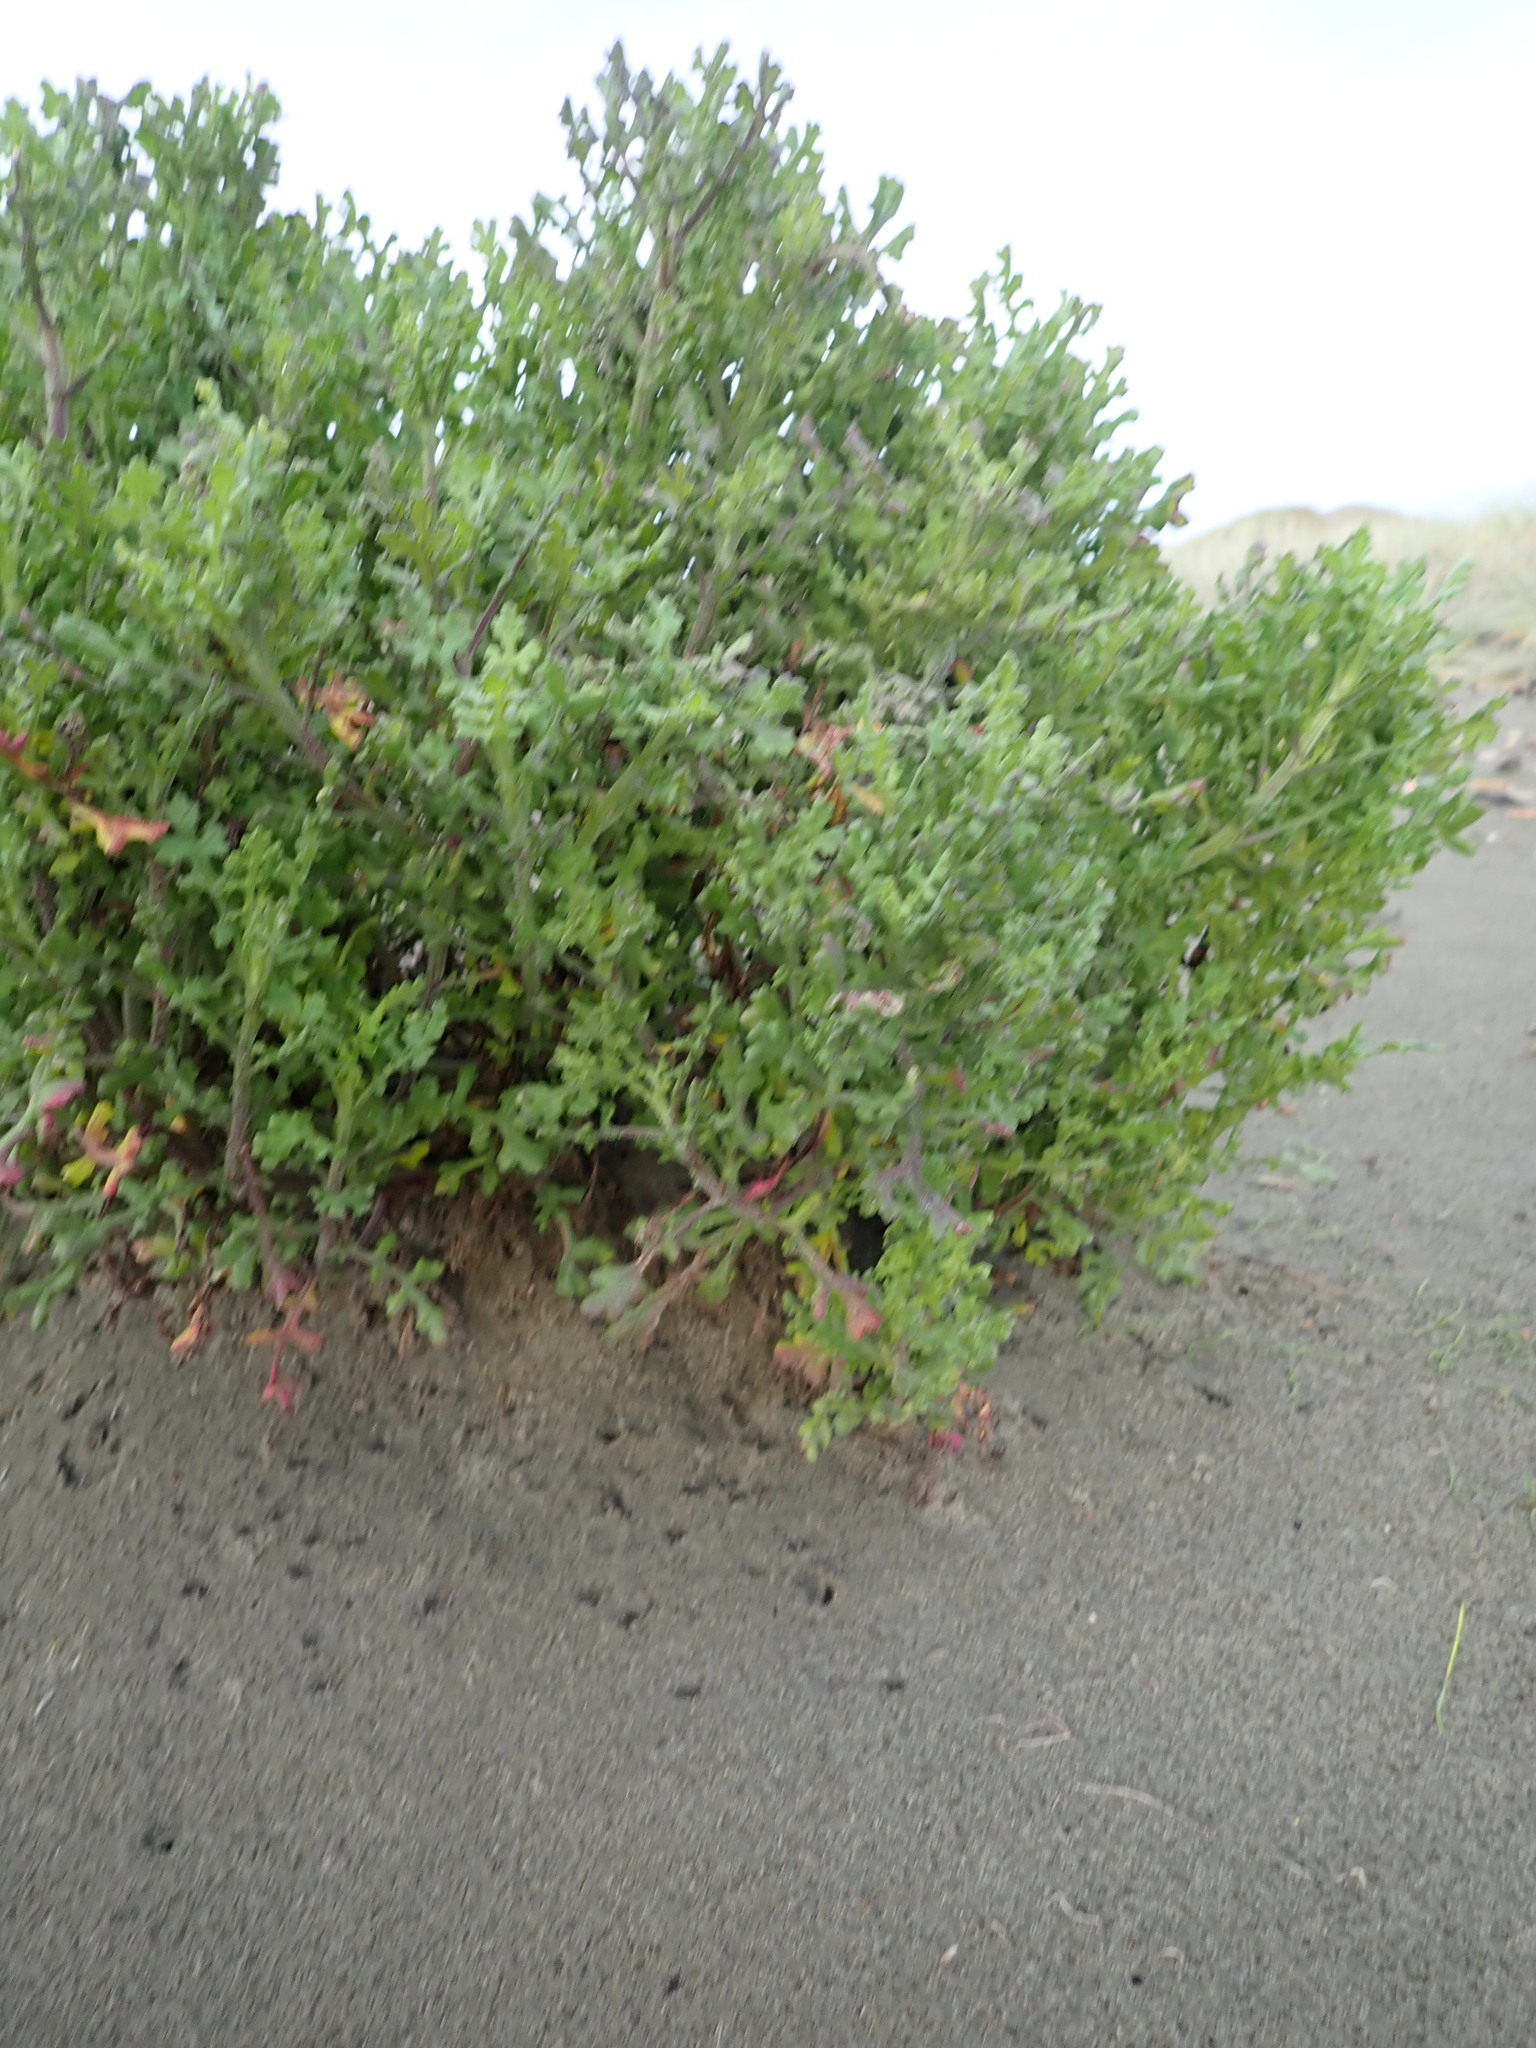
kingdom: Plantae
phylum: Tracheophyta
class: Magnoliopsida
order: Asterales
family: Asteraceae
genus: Senecio
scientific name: Senecio elegans
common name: Purple groundsel
